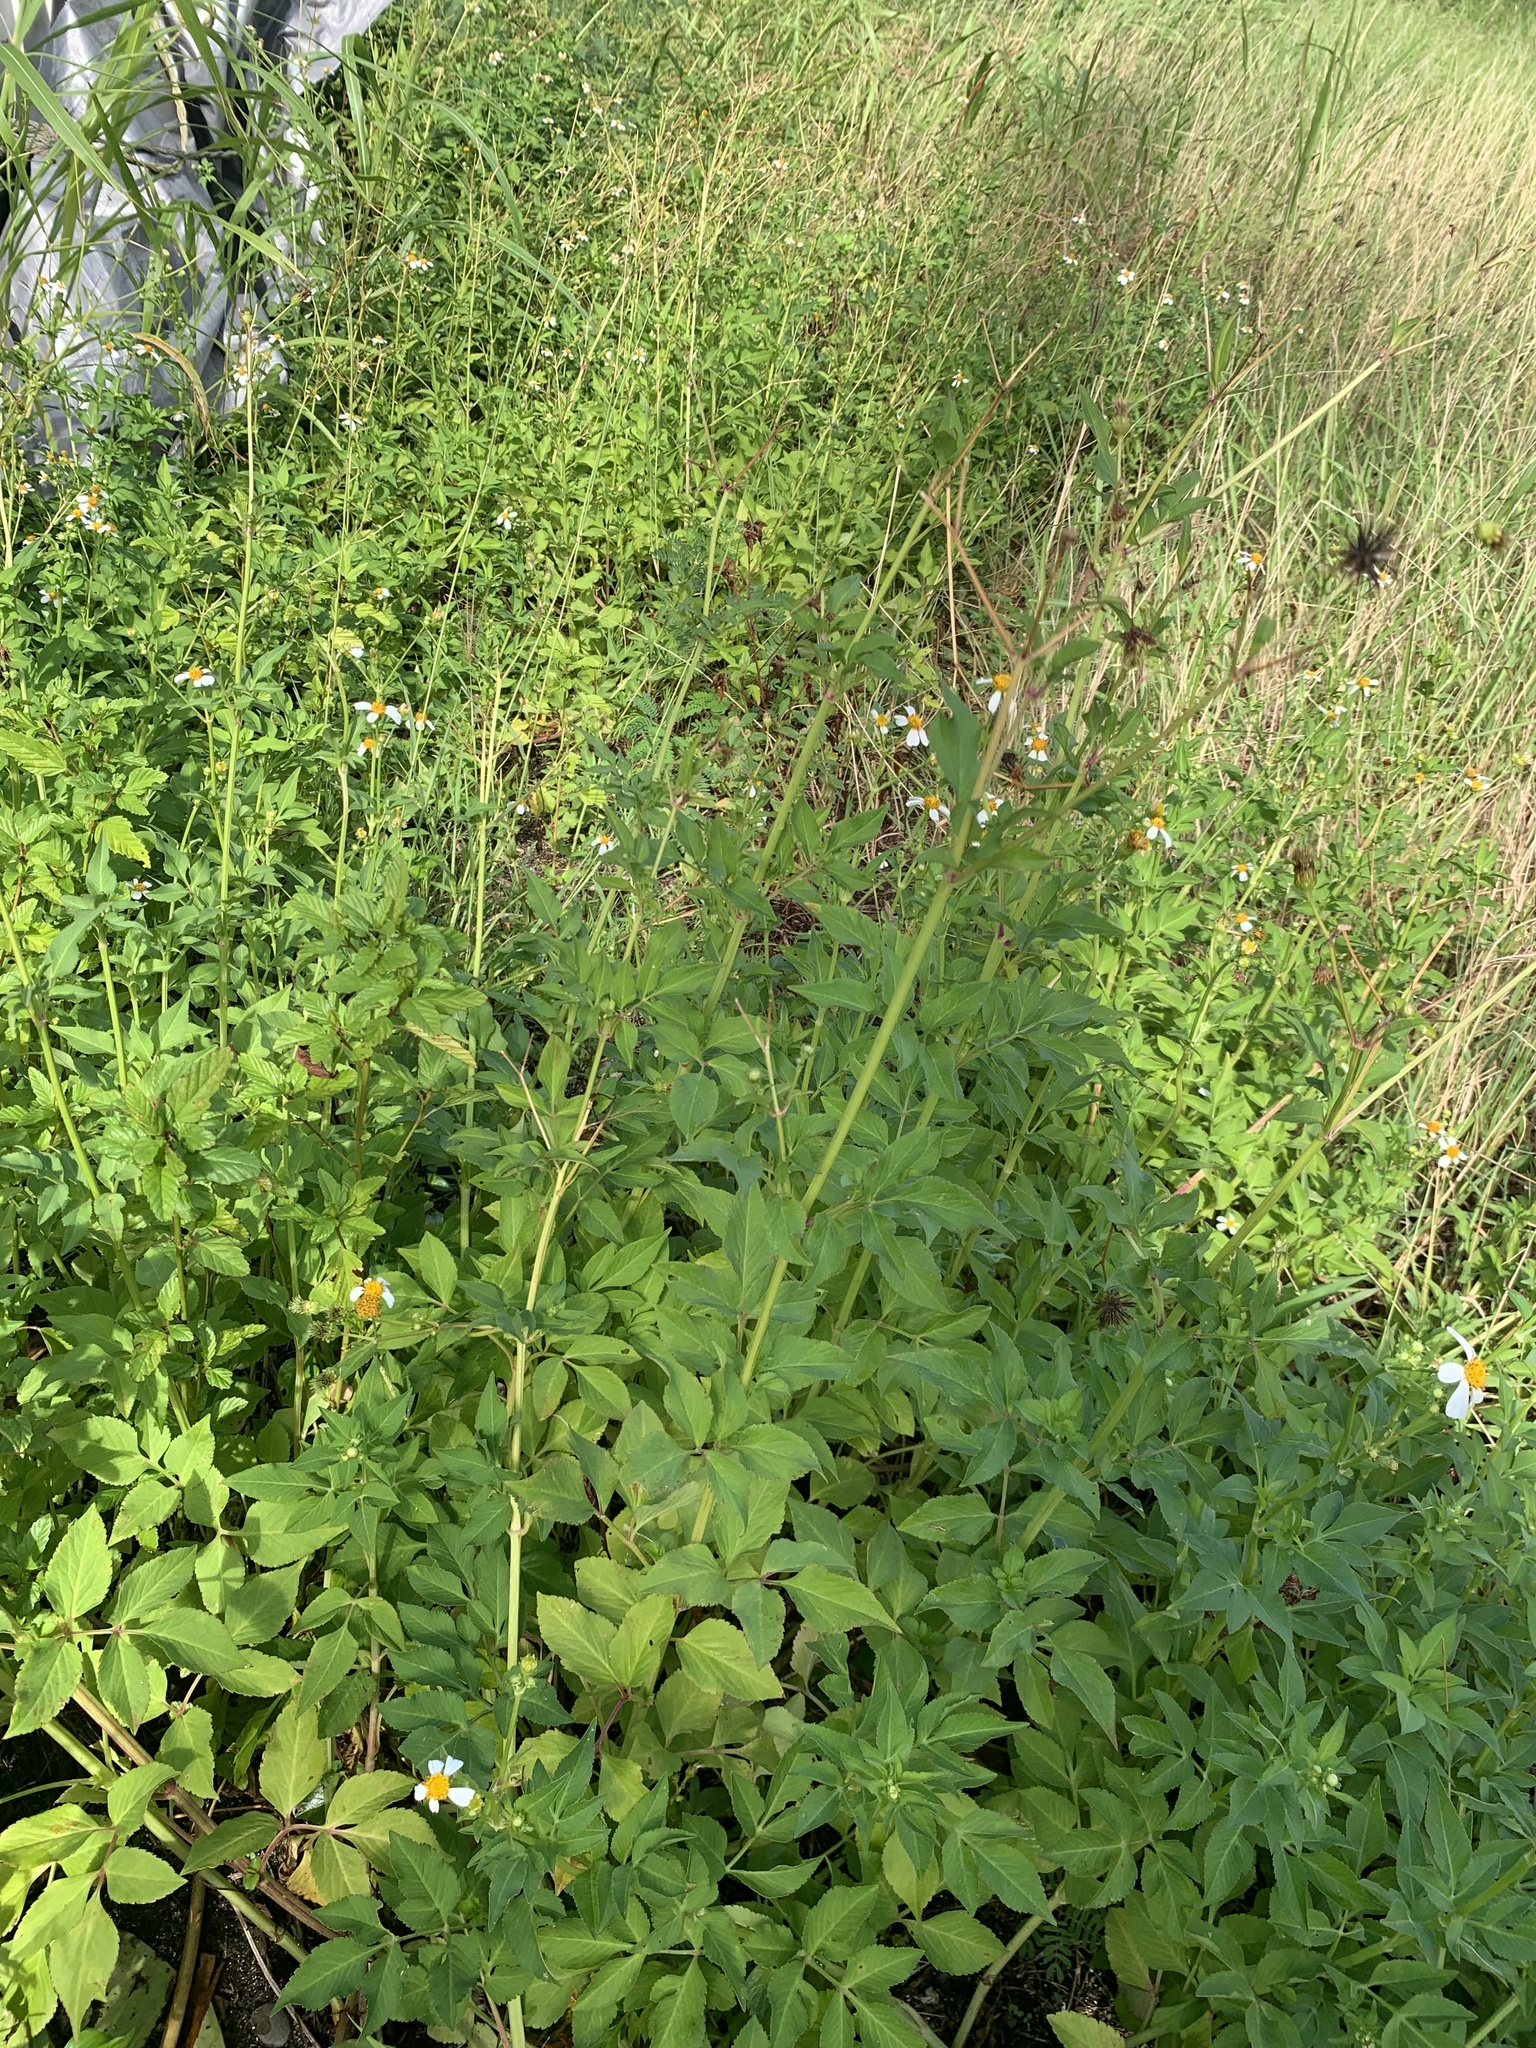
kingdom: Plantae
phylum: Tracheophyta
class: Magnoliopsida
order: Asterales
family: Asteraceae
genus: Bidens
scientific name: Bidens alba
